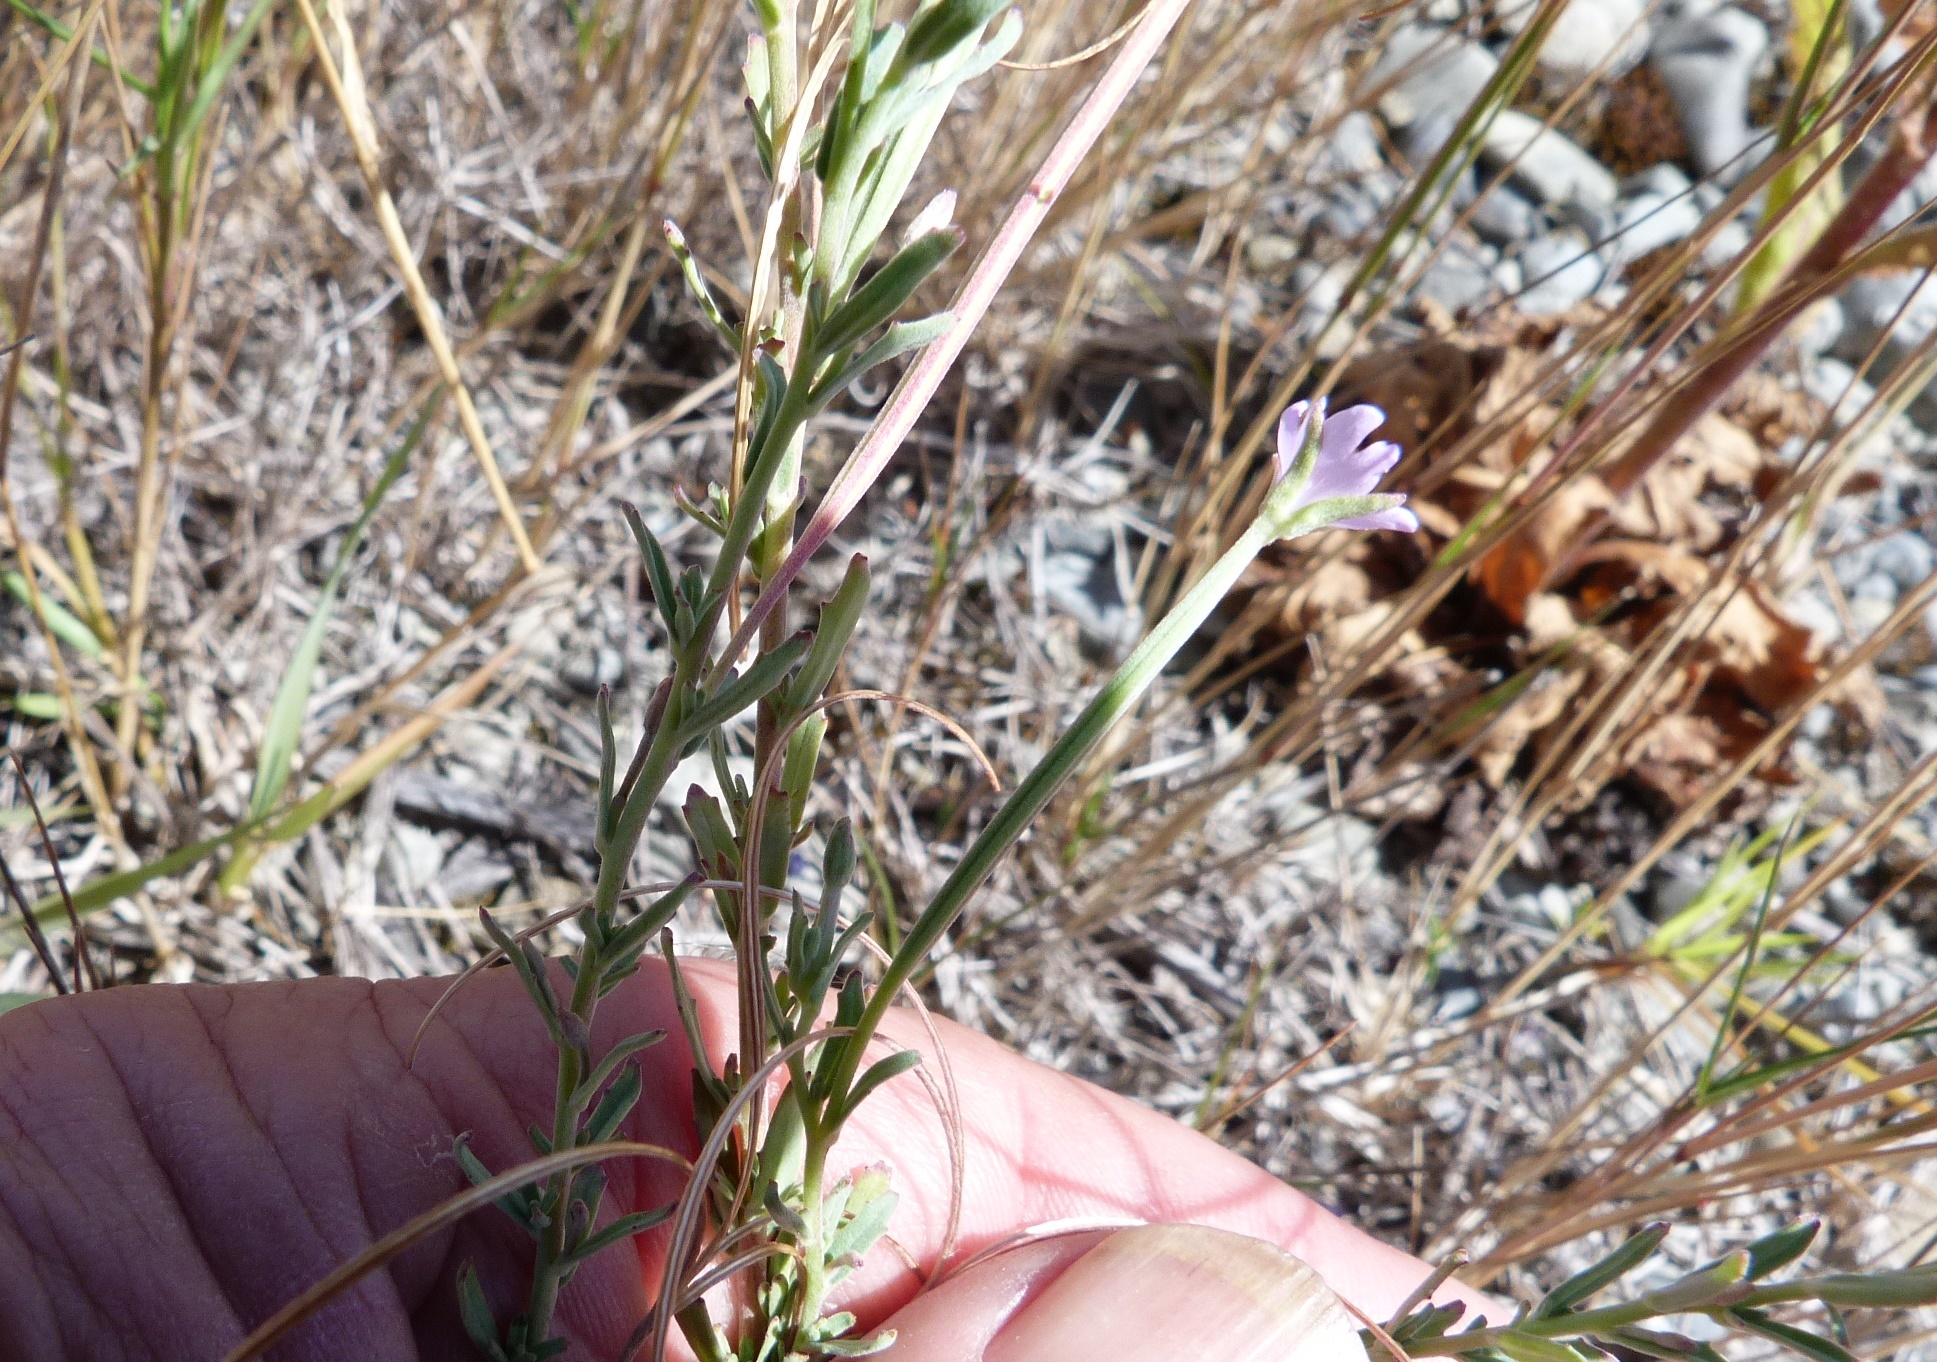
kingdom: Plantae
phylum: Tracheophyta
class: Magnoliopsida
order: Myrtales
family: Onagraceae
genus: Epilobium
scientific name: Epilobium billardierianum
